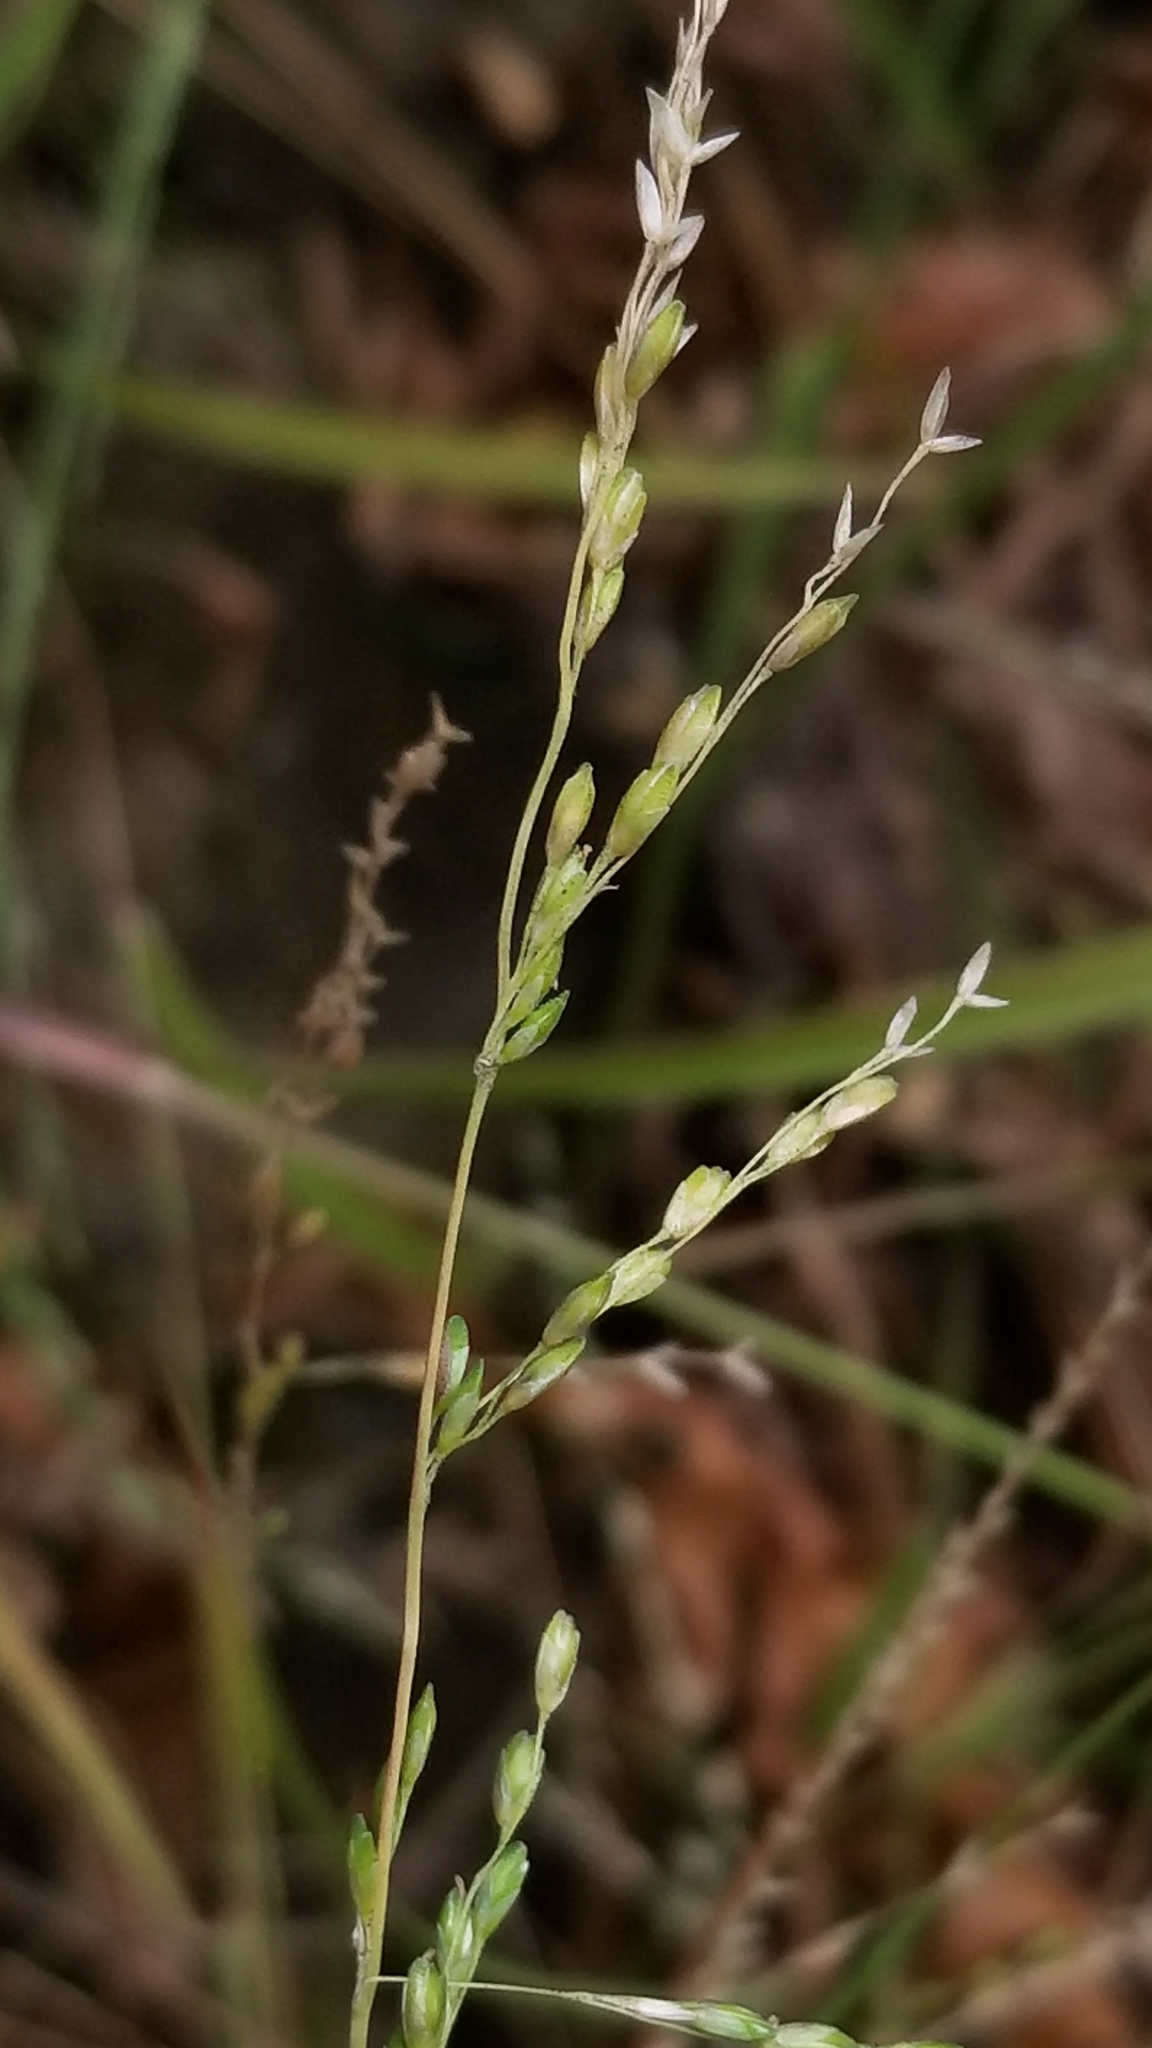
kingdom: Plantae
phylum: Tracheophyta
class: Liliopsida
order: Poales
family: Poaceae
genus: Ehrharta
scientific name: Ehrharta erecta
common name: Panic veldtgrass
